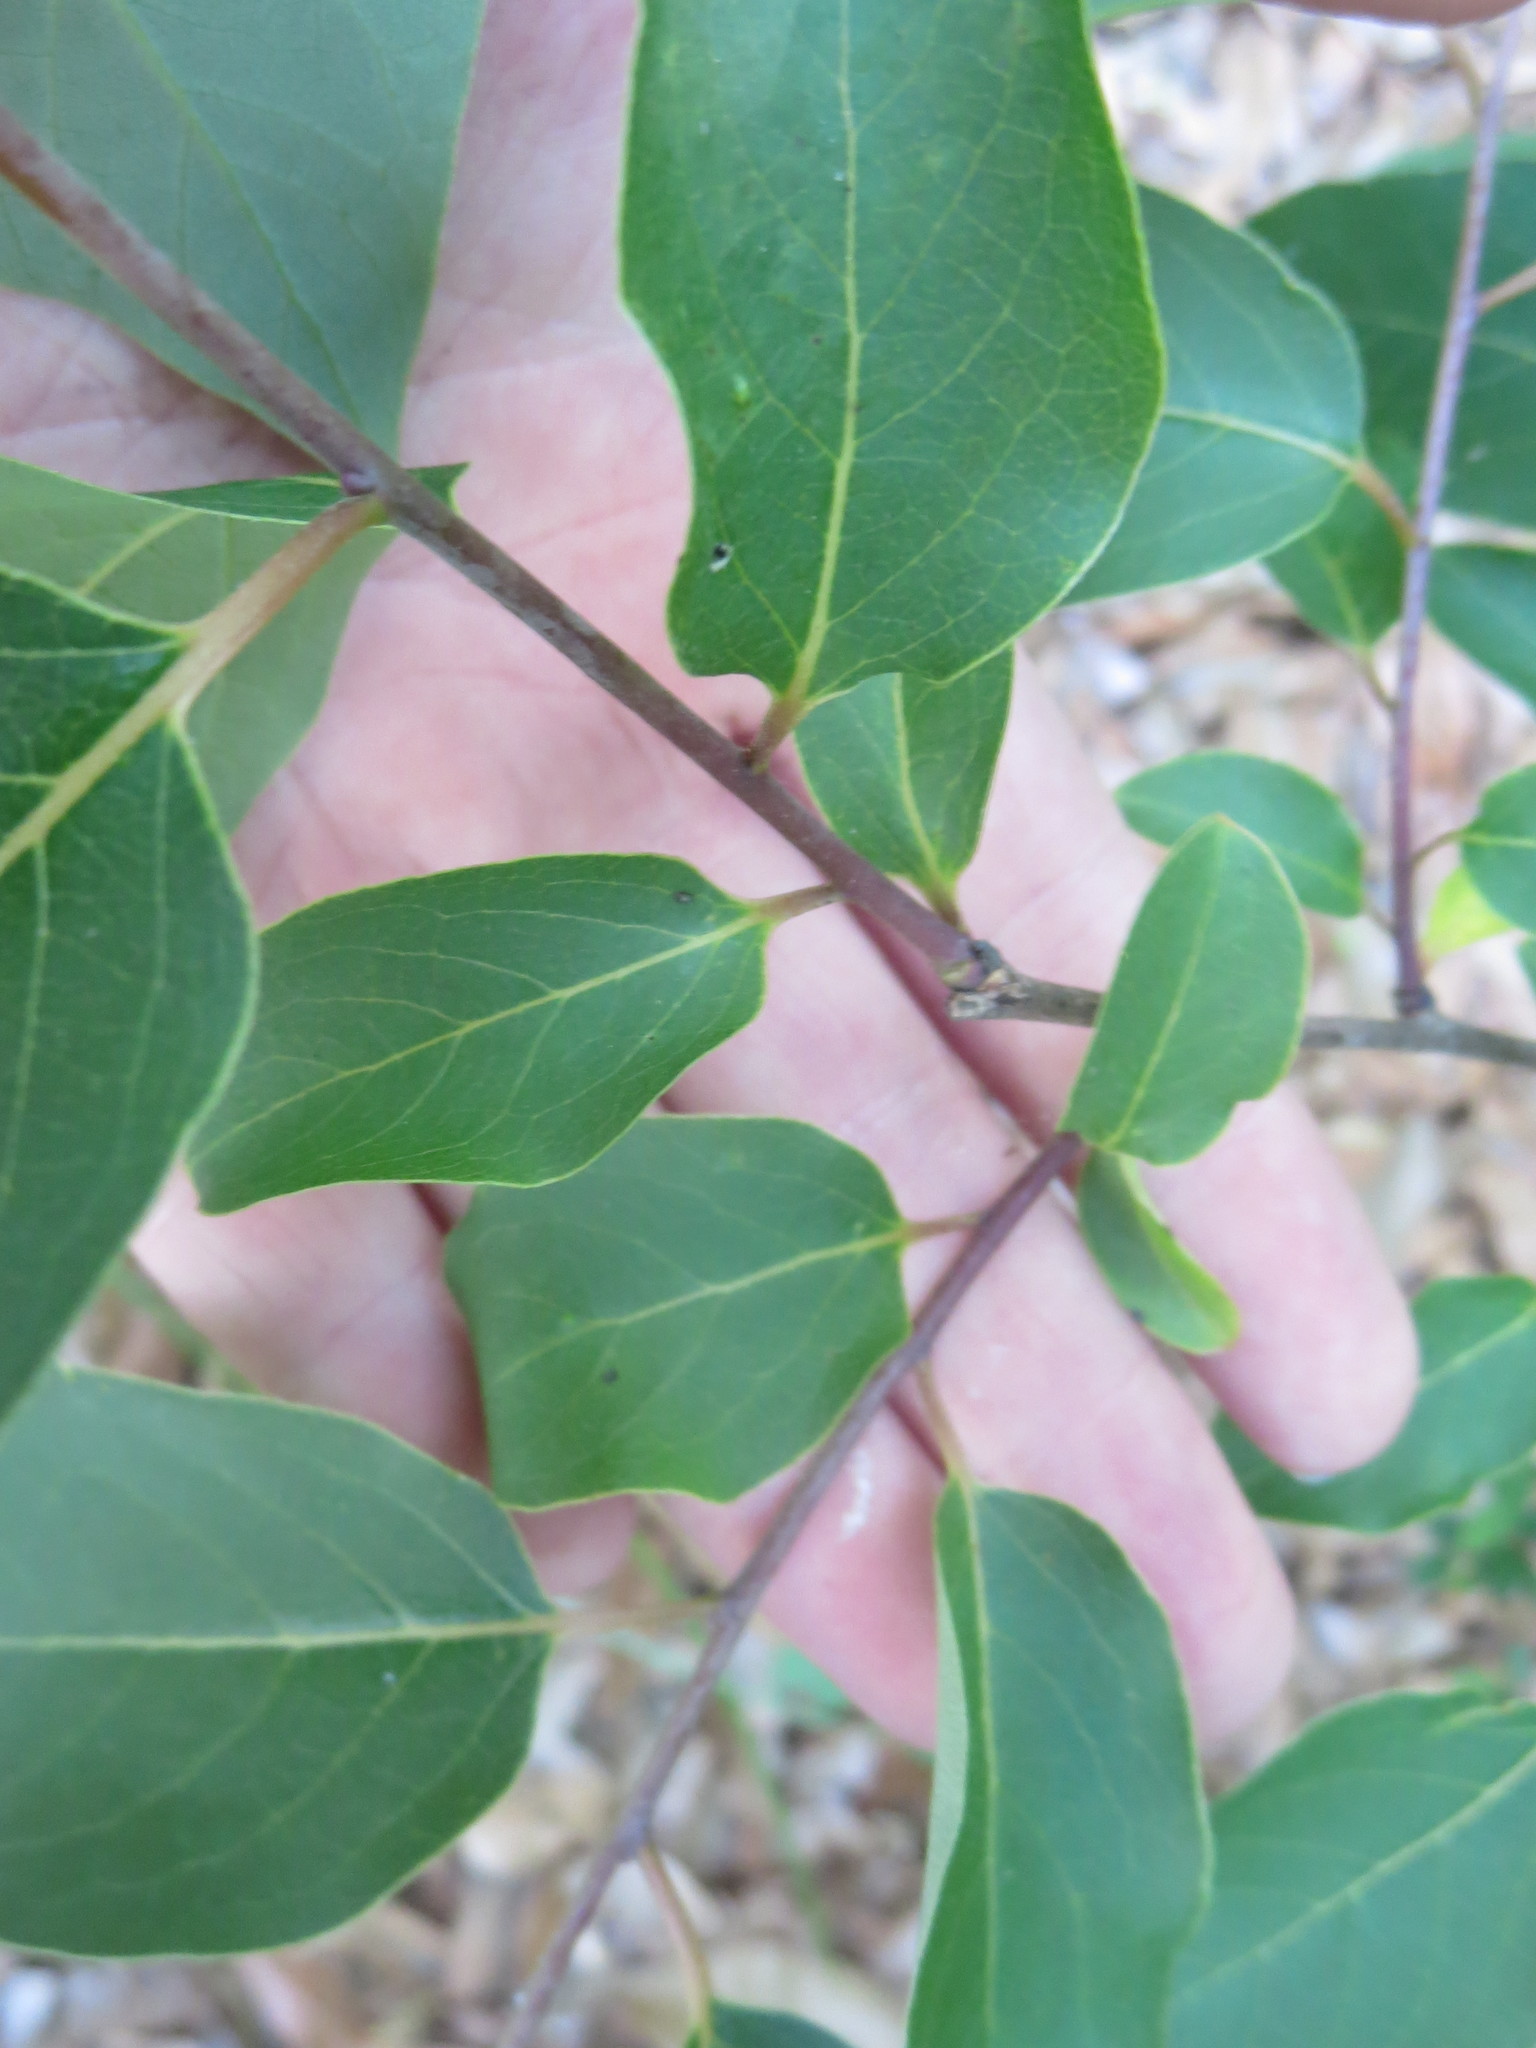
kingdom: Plantae
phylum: Tracheophyta
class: Magnoliopsida
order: Ericales
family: Ebenaceae
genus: Diospyros
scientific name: Diospyros virginiana
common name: Persimmon
